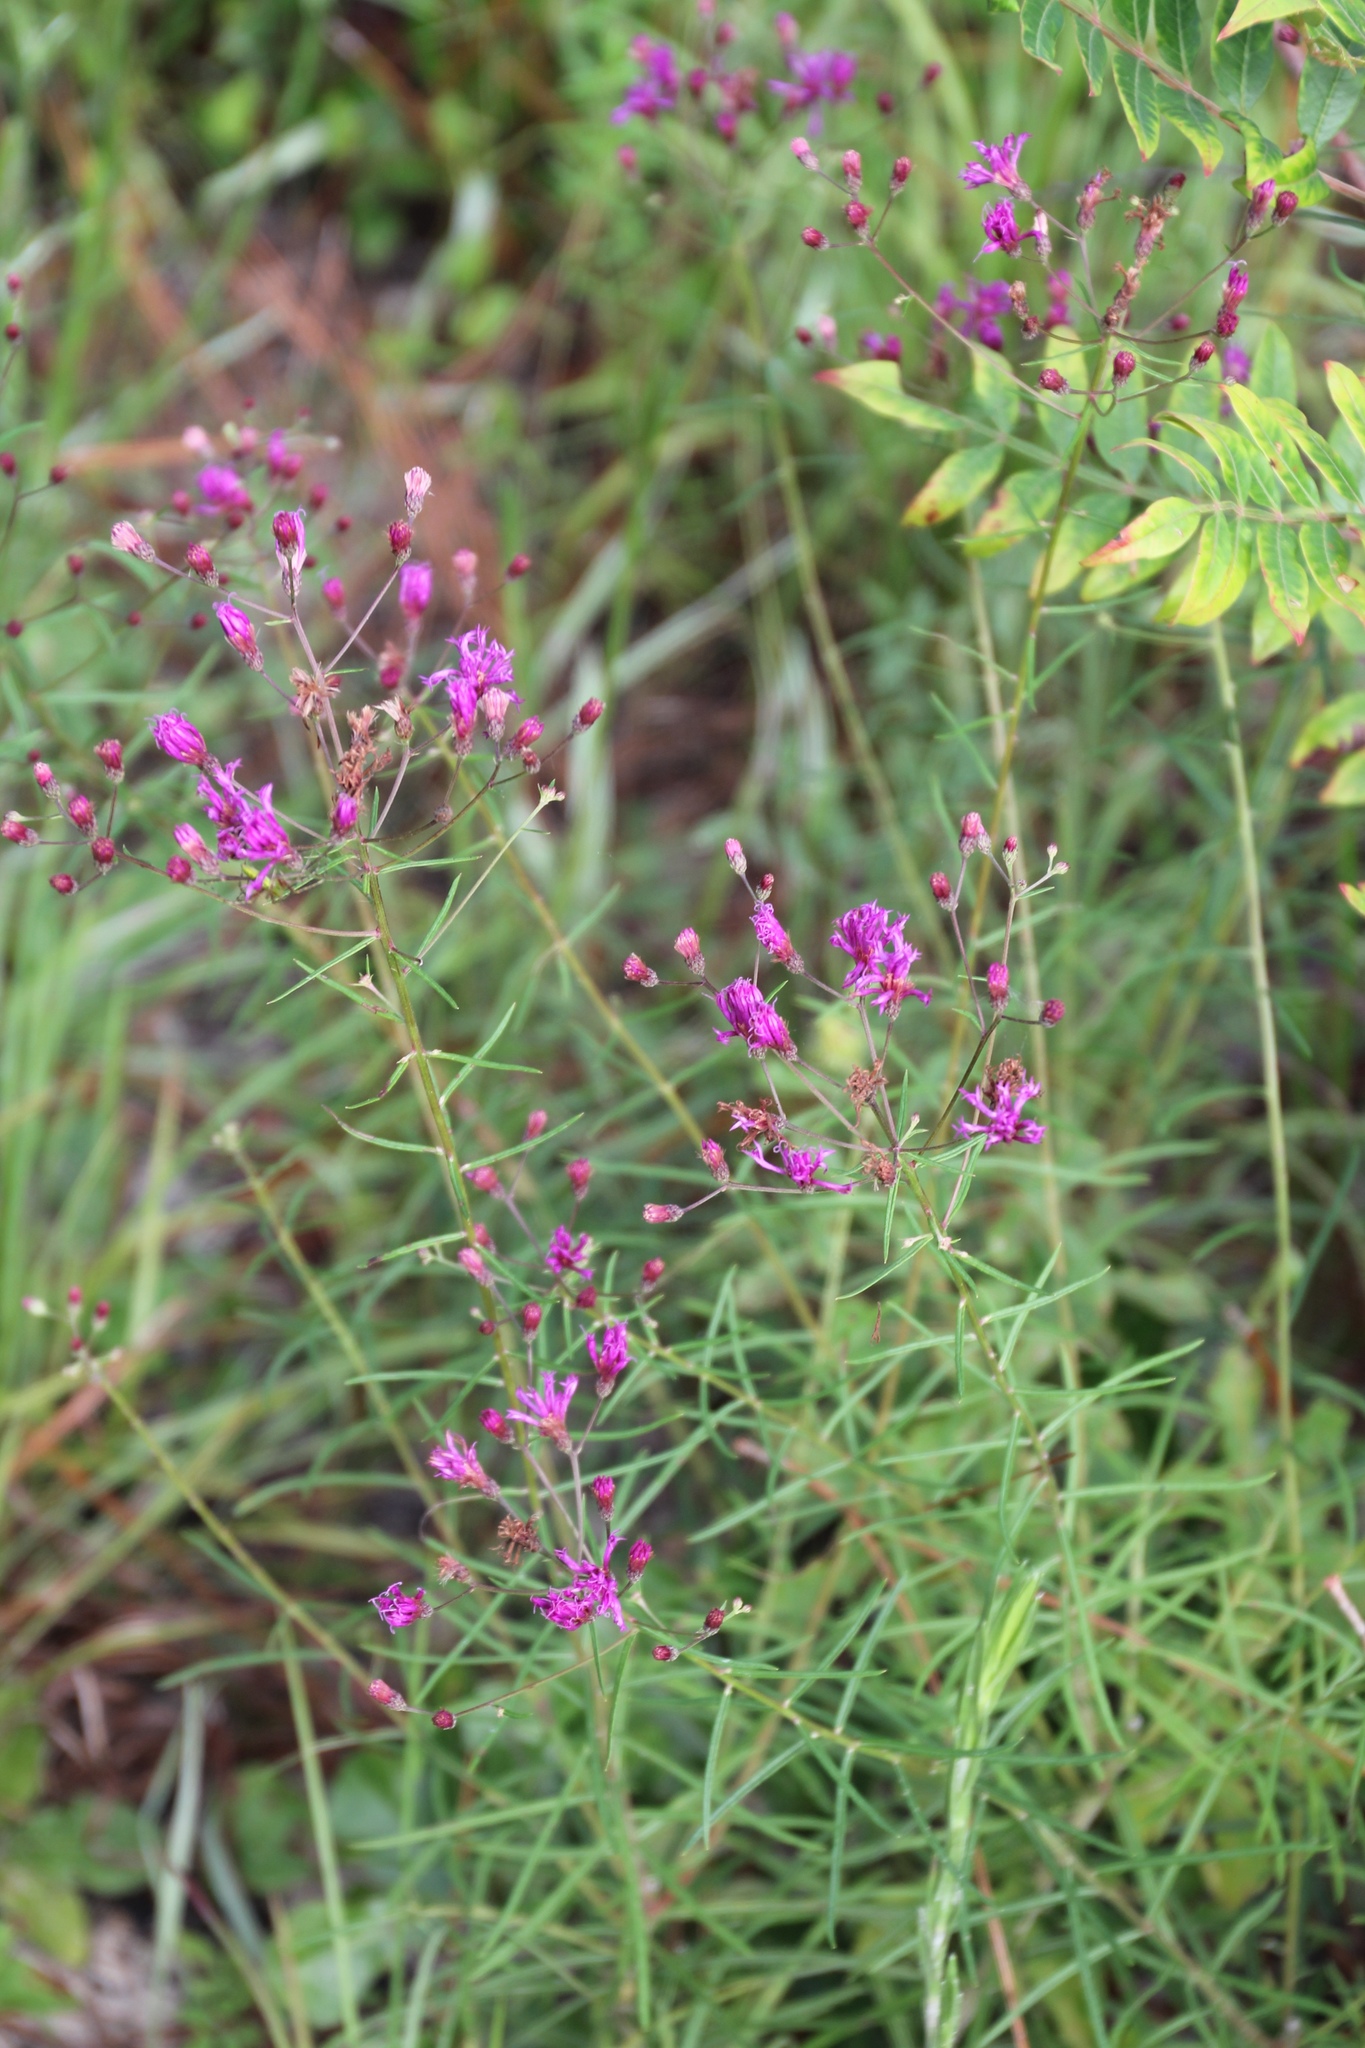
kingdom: Plantae
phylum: Tracheophyta
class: Magnoliopsida
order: Asterales
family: Asteraceae
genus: Vernonia
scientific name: Vernonia angustifolia
